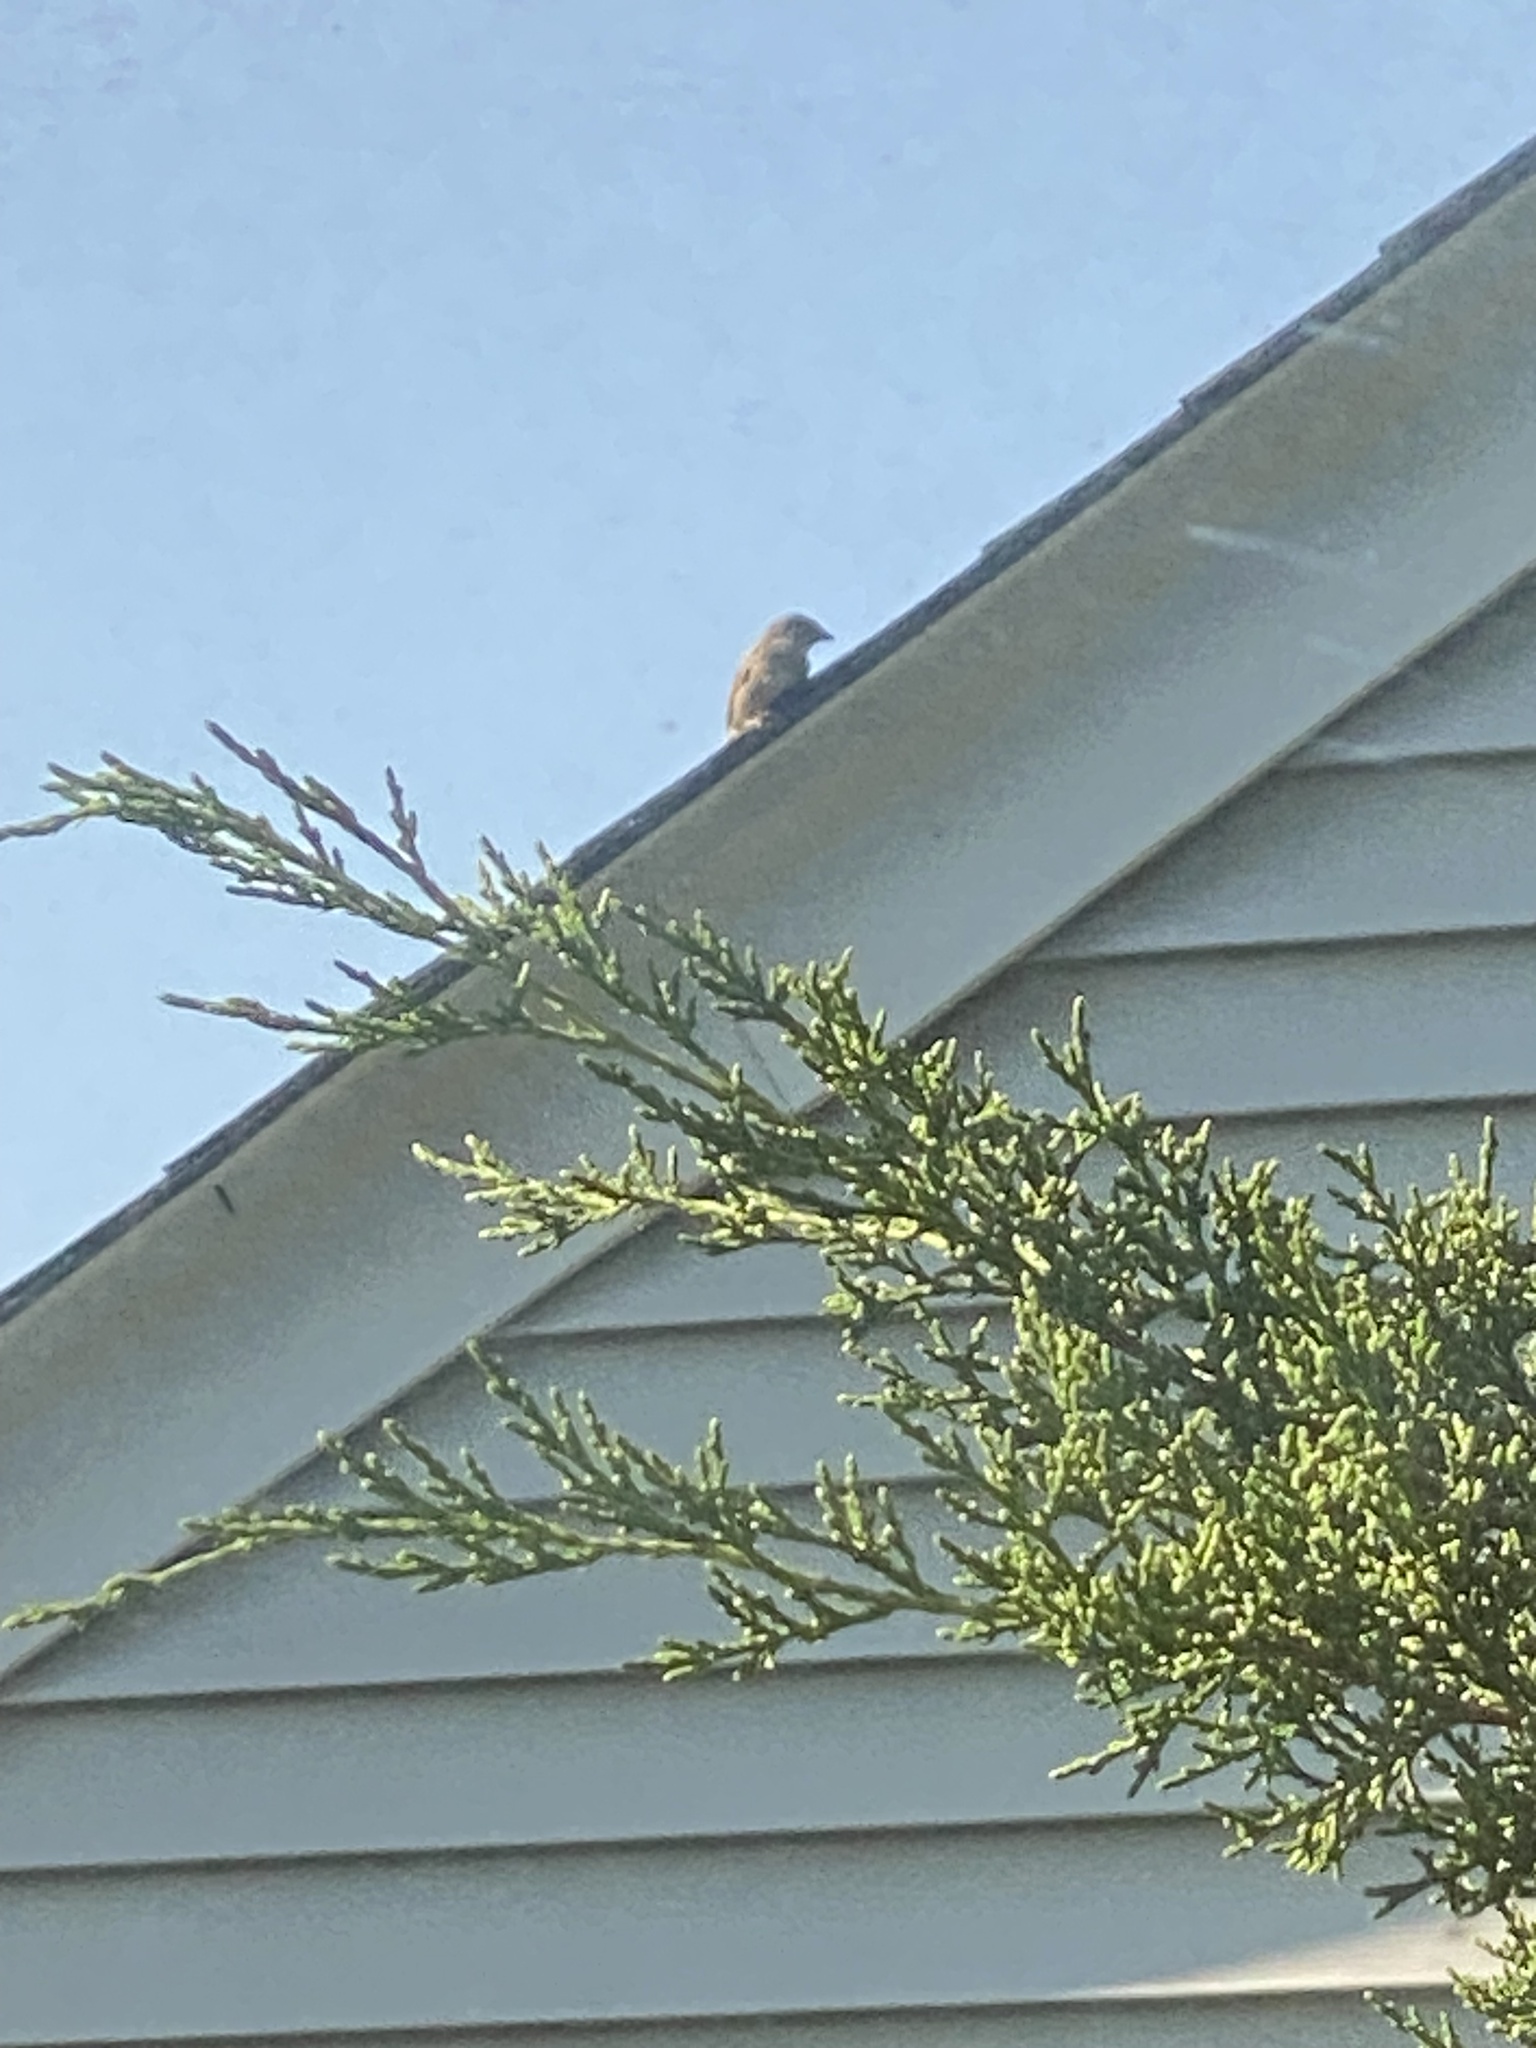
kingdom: Animalia
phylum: Chordata
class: Aves
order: Passeriformes
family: Passeridae
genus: Passer
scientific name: Passer domesticus
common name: House sparrow
